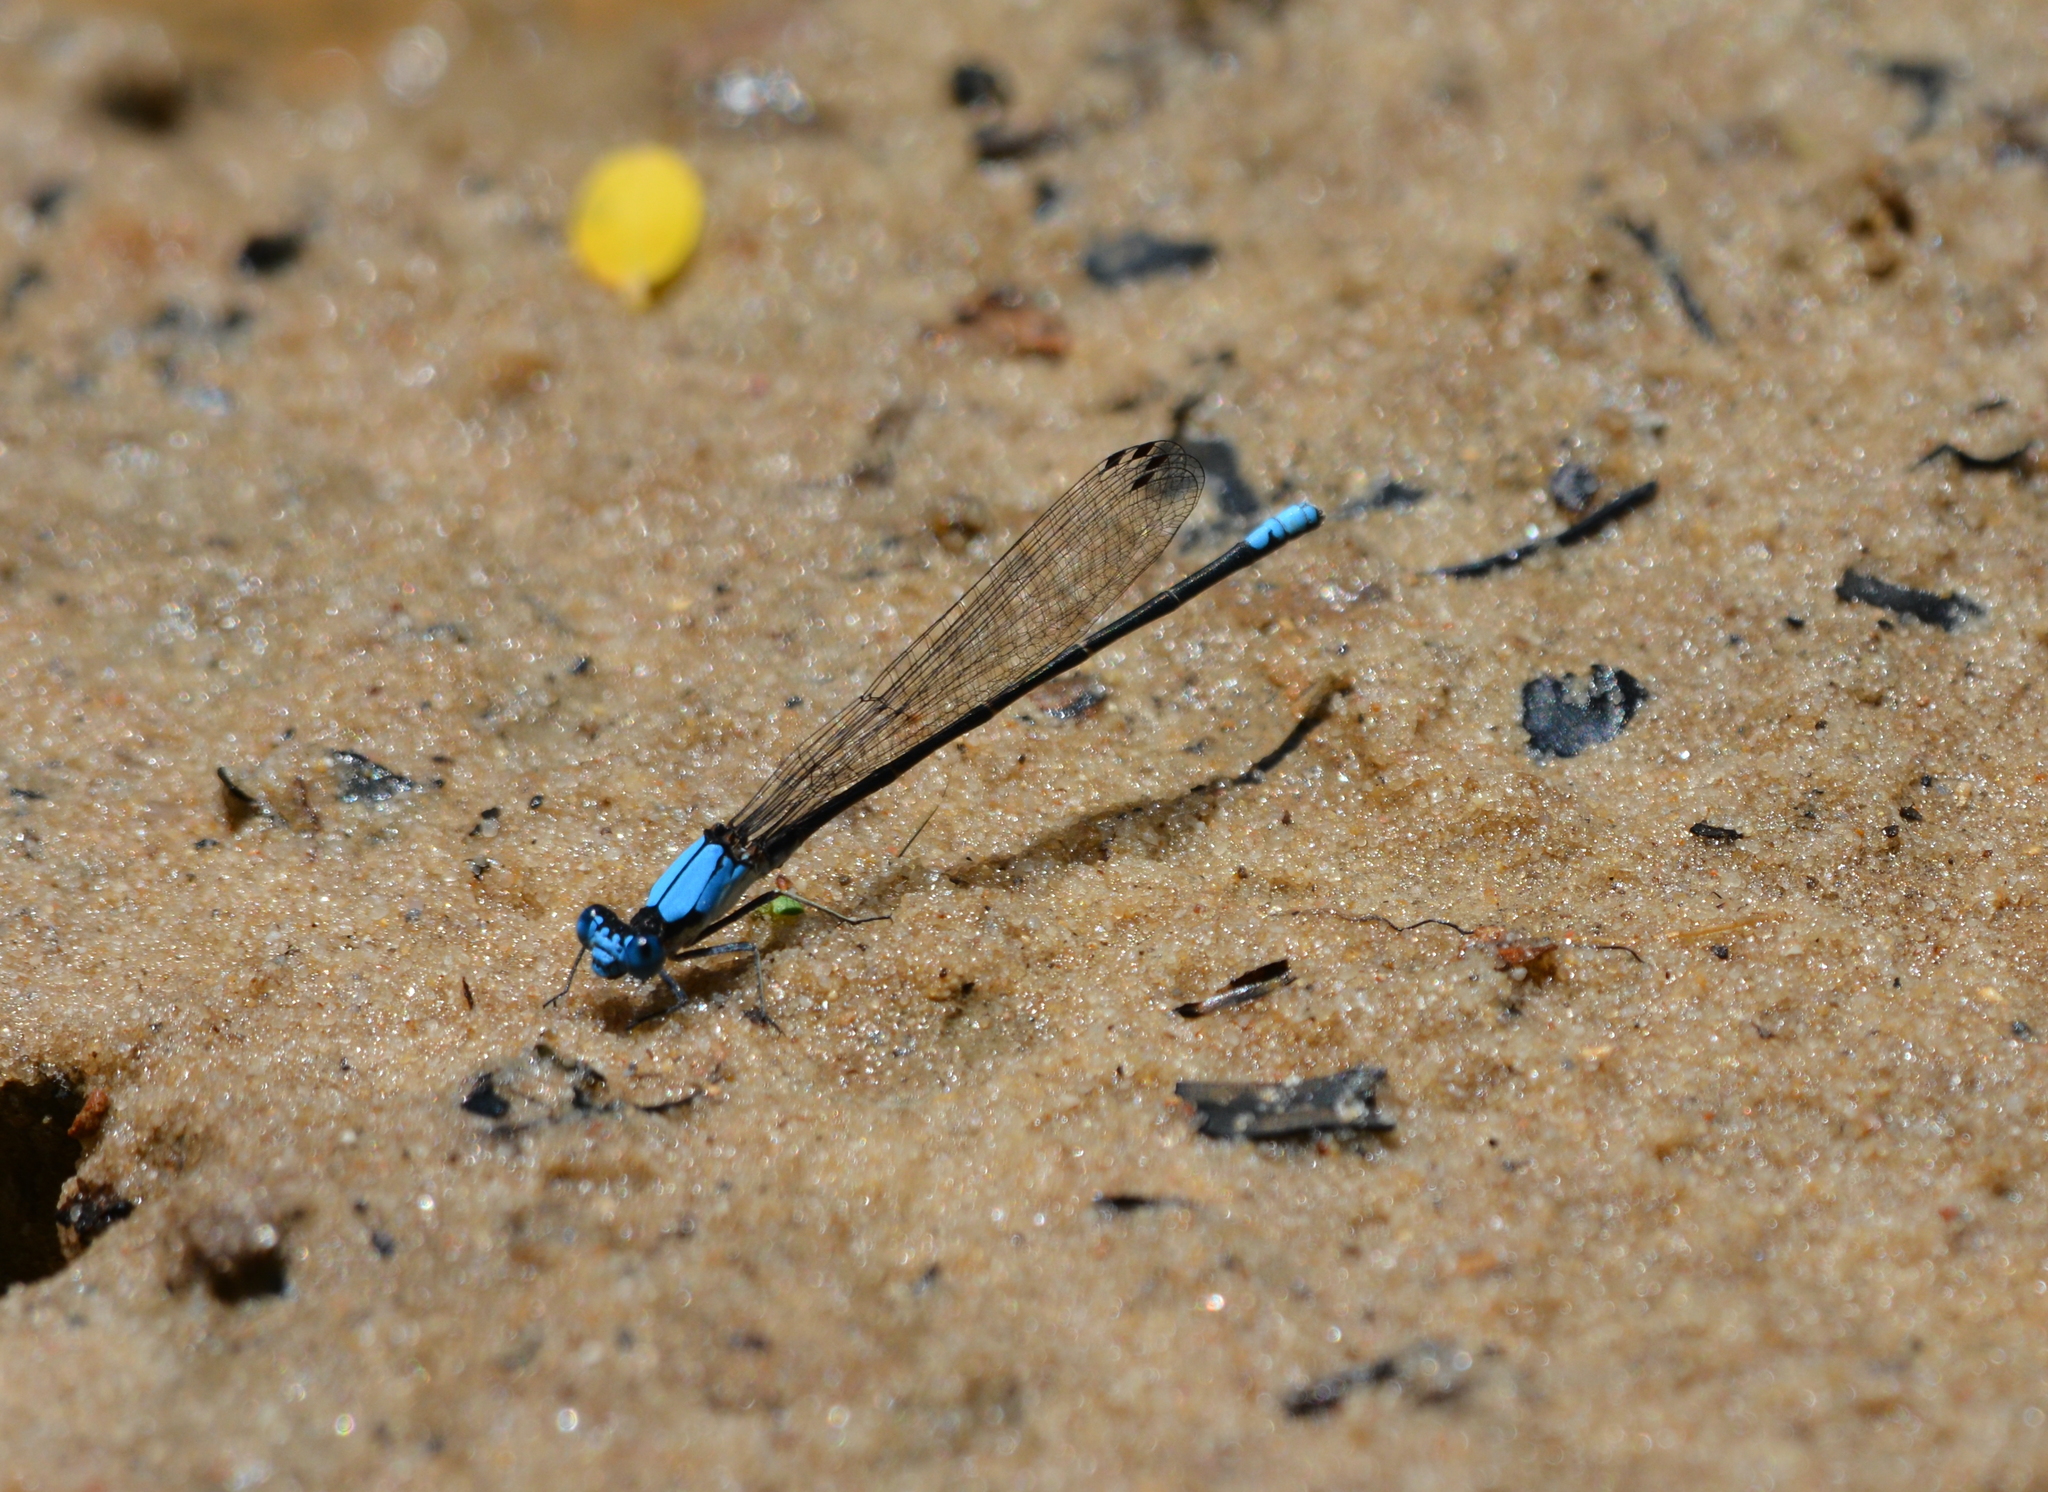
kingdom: Animalia
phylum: Arthropoda
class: Insecta
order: Odonata
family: Coenagrionidae
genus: Argia
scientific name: Argia apicalis
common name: Blue-fronted dancer
